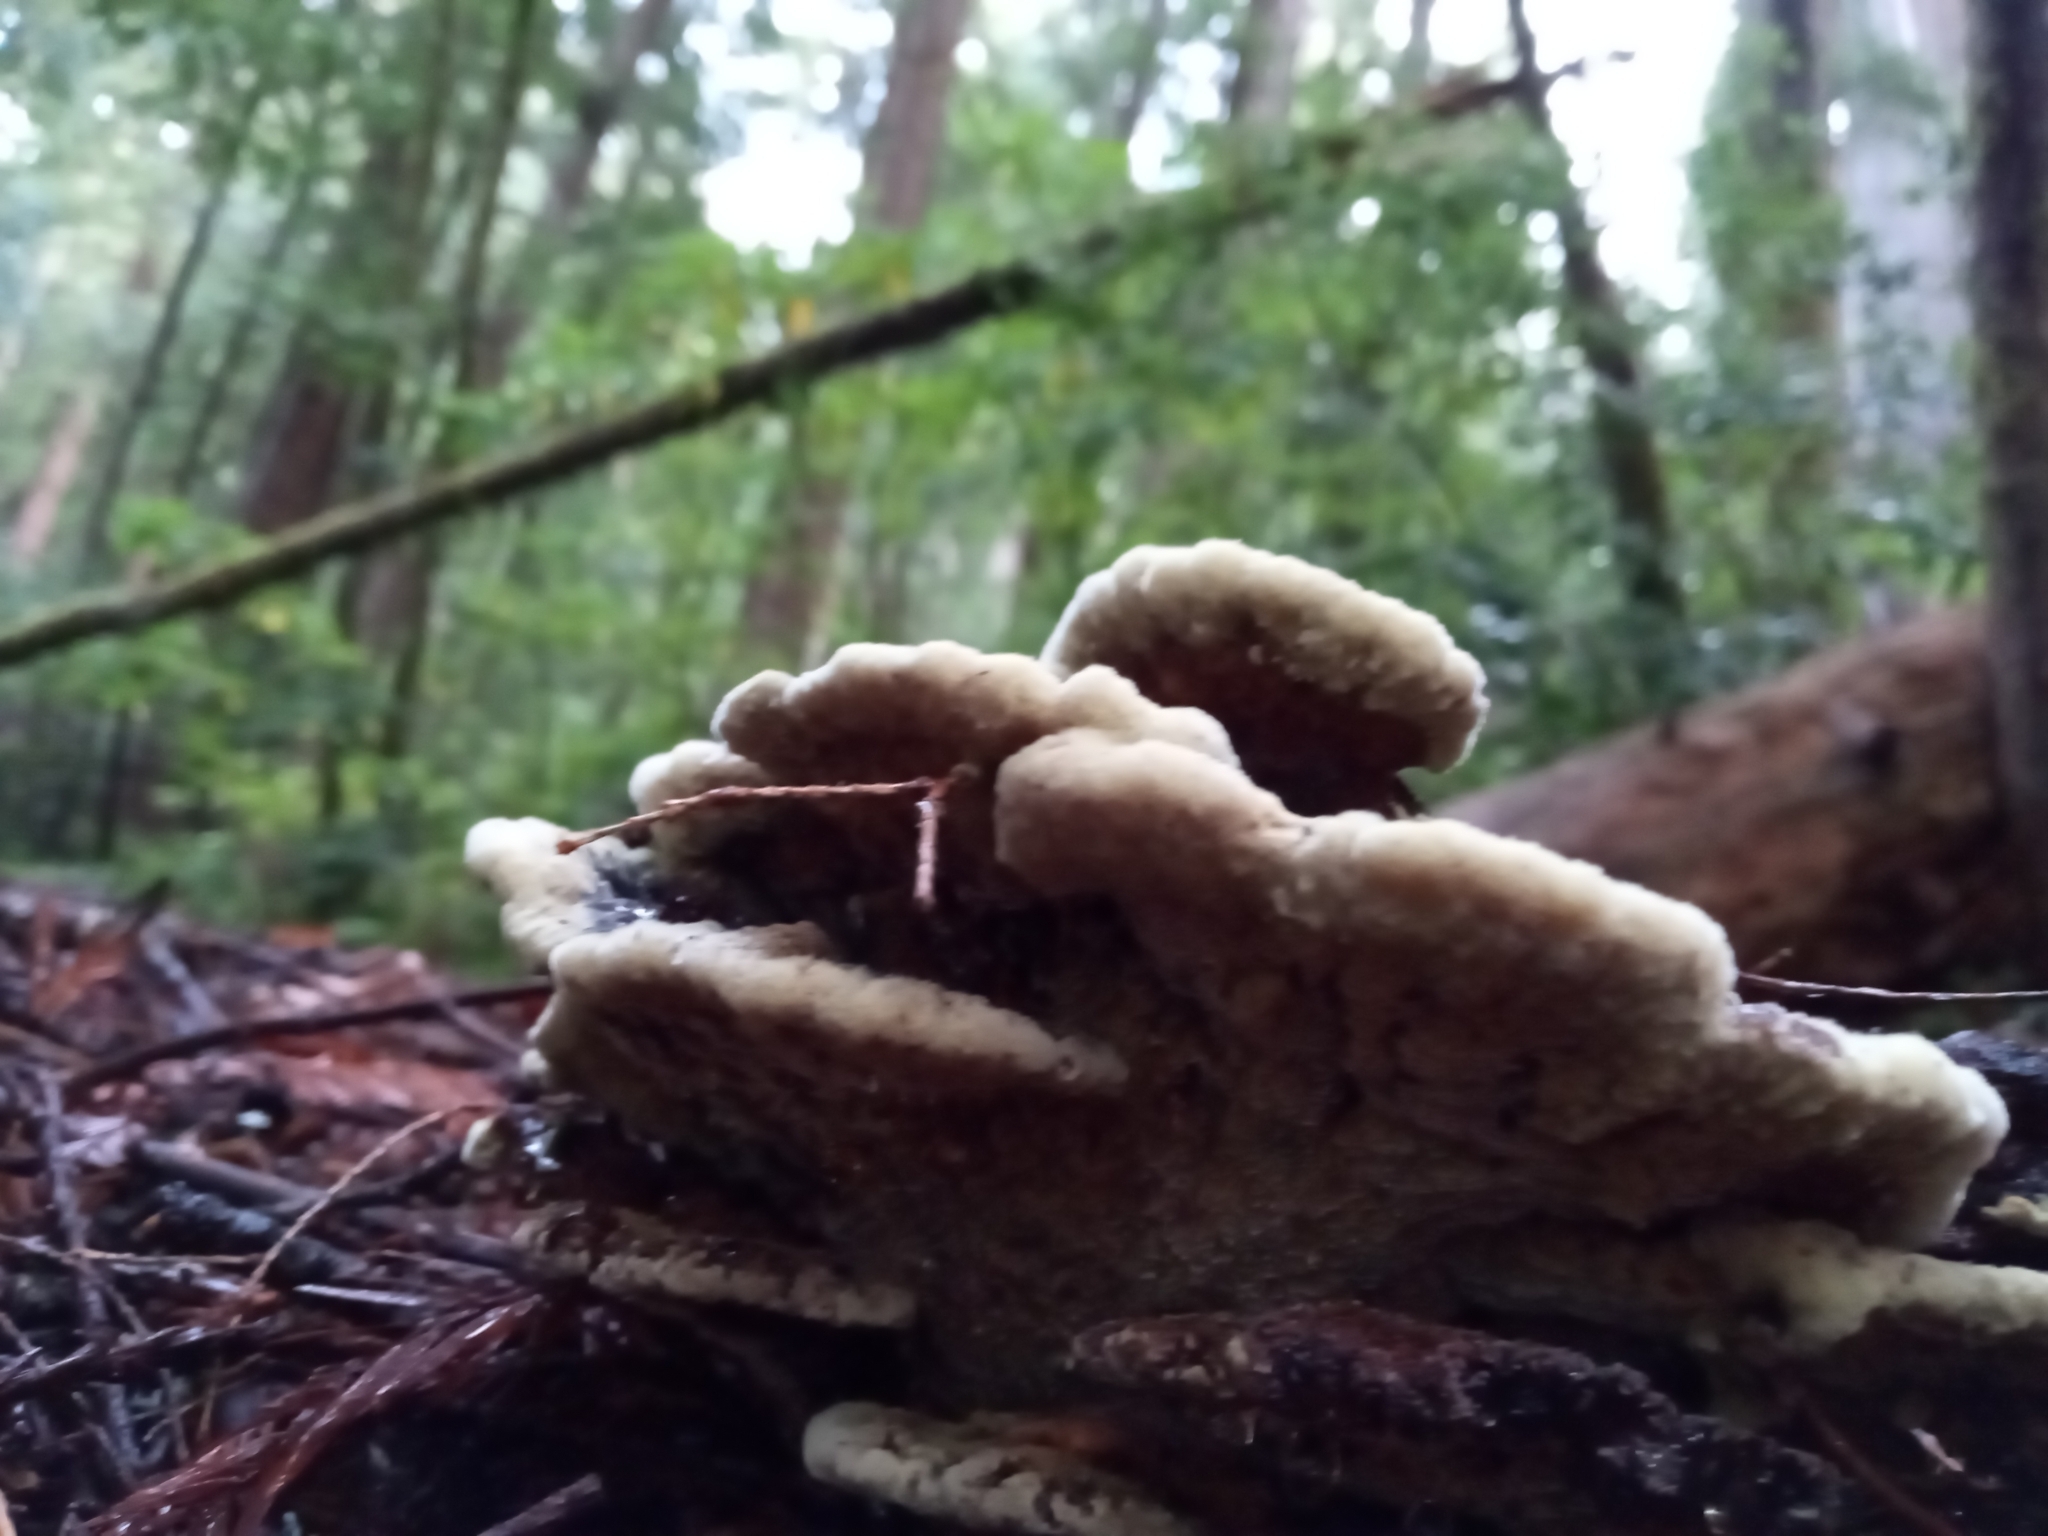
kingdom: Fungi
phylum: Basidiomycota
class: Agaricomycetes
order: Polyporales
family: Laetiporaceae
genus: Phaeolus
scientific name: Phaeolus schweinitzii
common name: Dyer's mazegill
